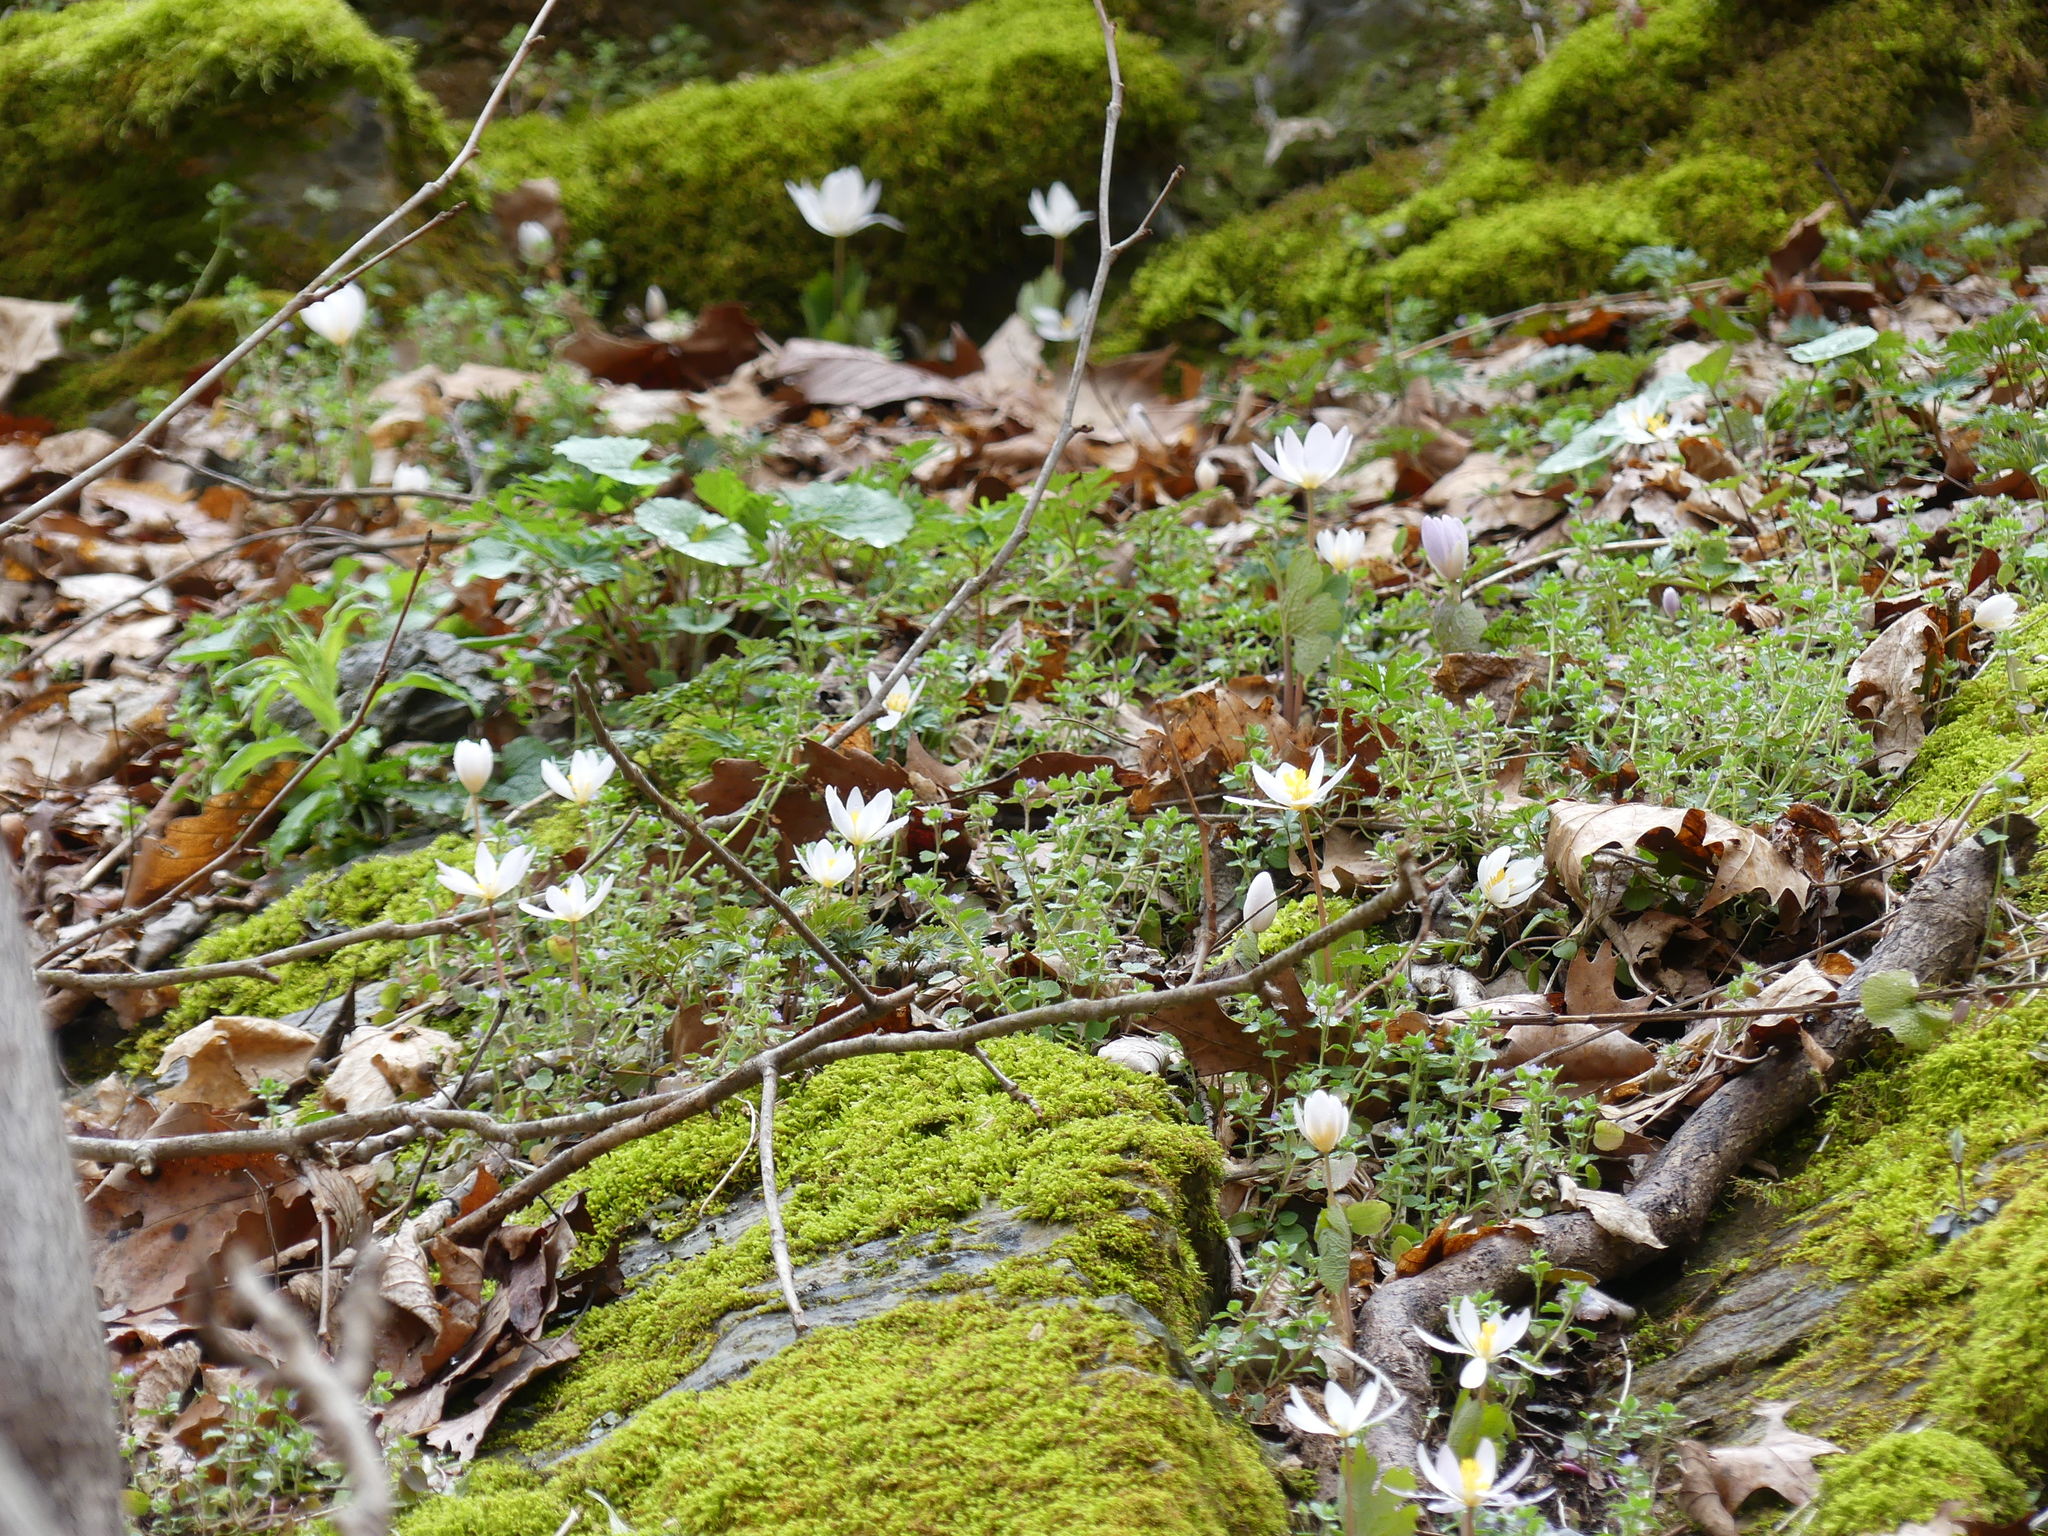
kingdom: Plantae
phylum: Tracheophyta
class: Magnoliopsida
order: Ranunculales
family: Papaveraceae
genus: Sanguinaria
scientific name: Sanguinaria canadensis
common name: Bloodroot
